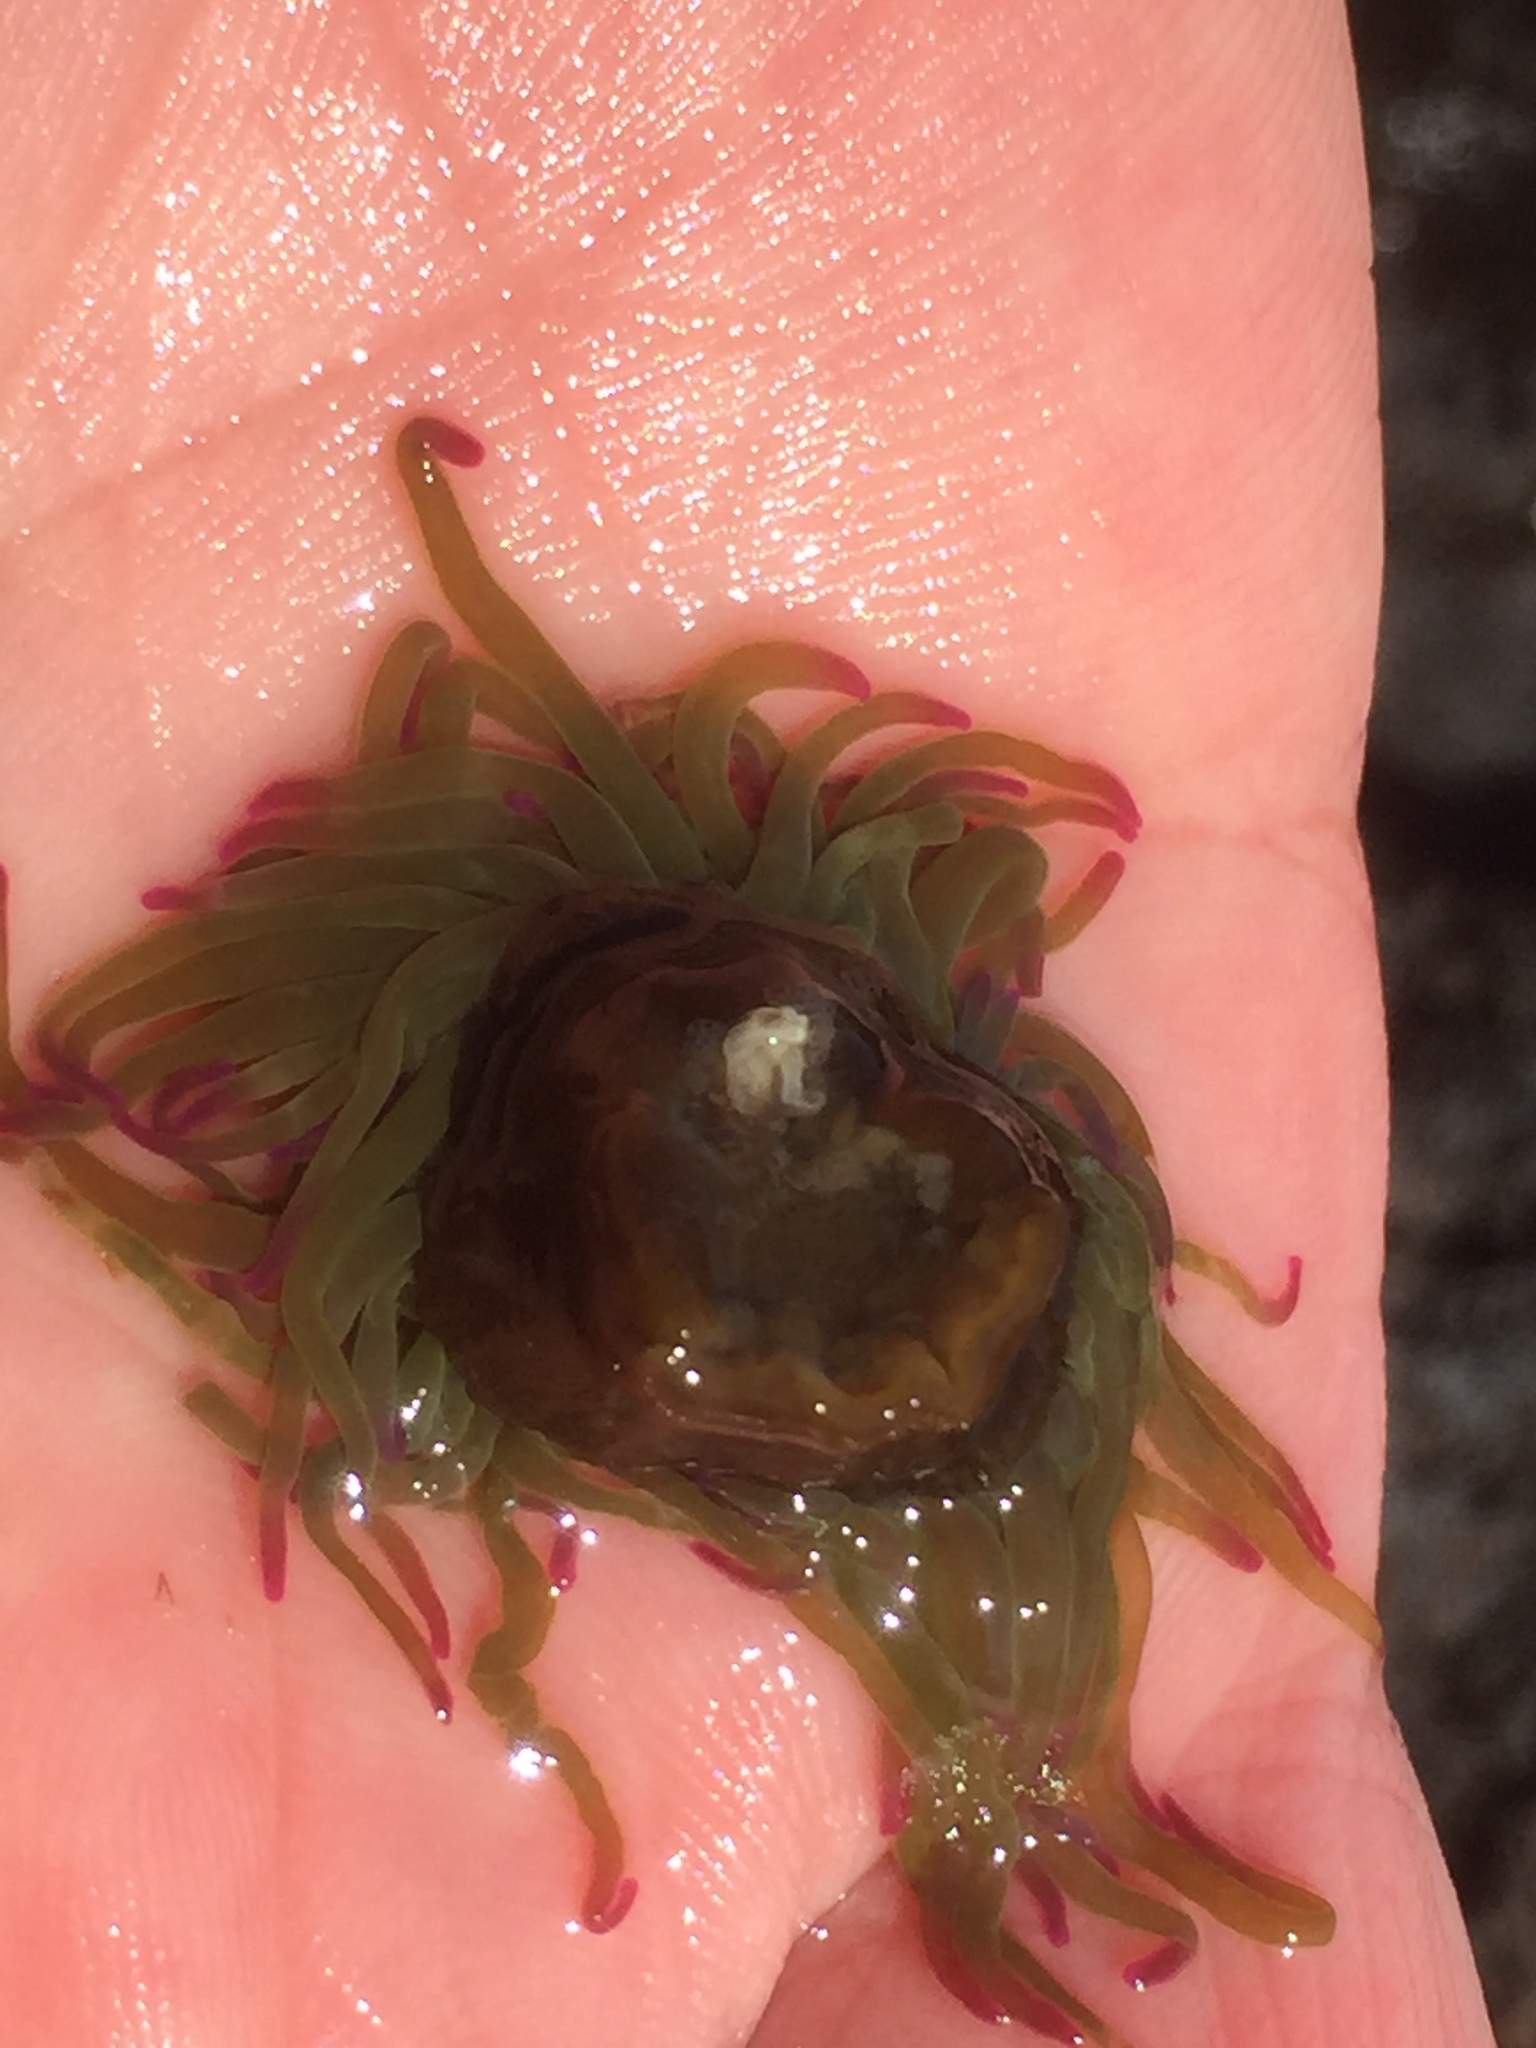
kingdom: Animalia
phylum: Cnidaria
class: Anthozoa
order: Actiniaria
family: Actiniidae
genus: Anemonia
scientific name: Anemonia viridis
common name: Snakelocks anemone
